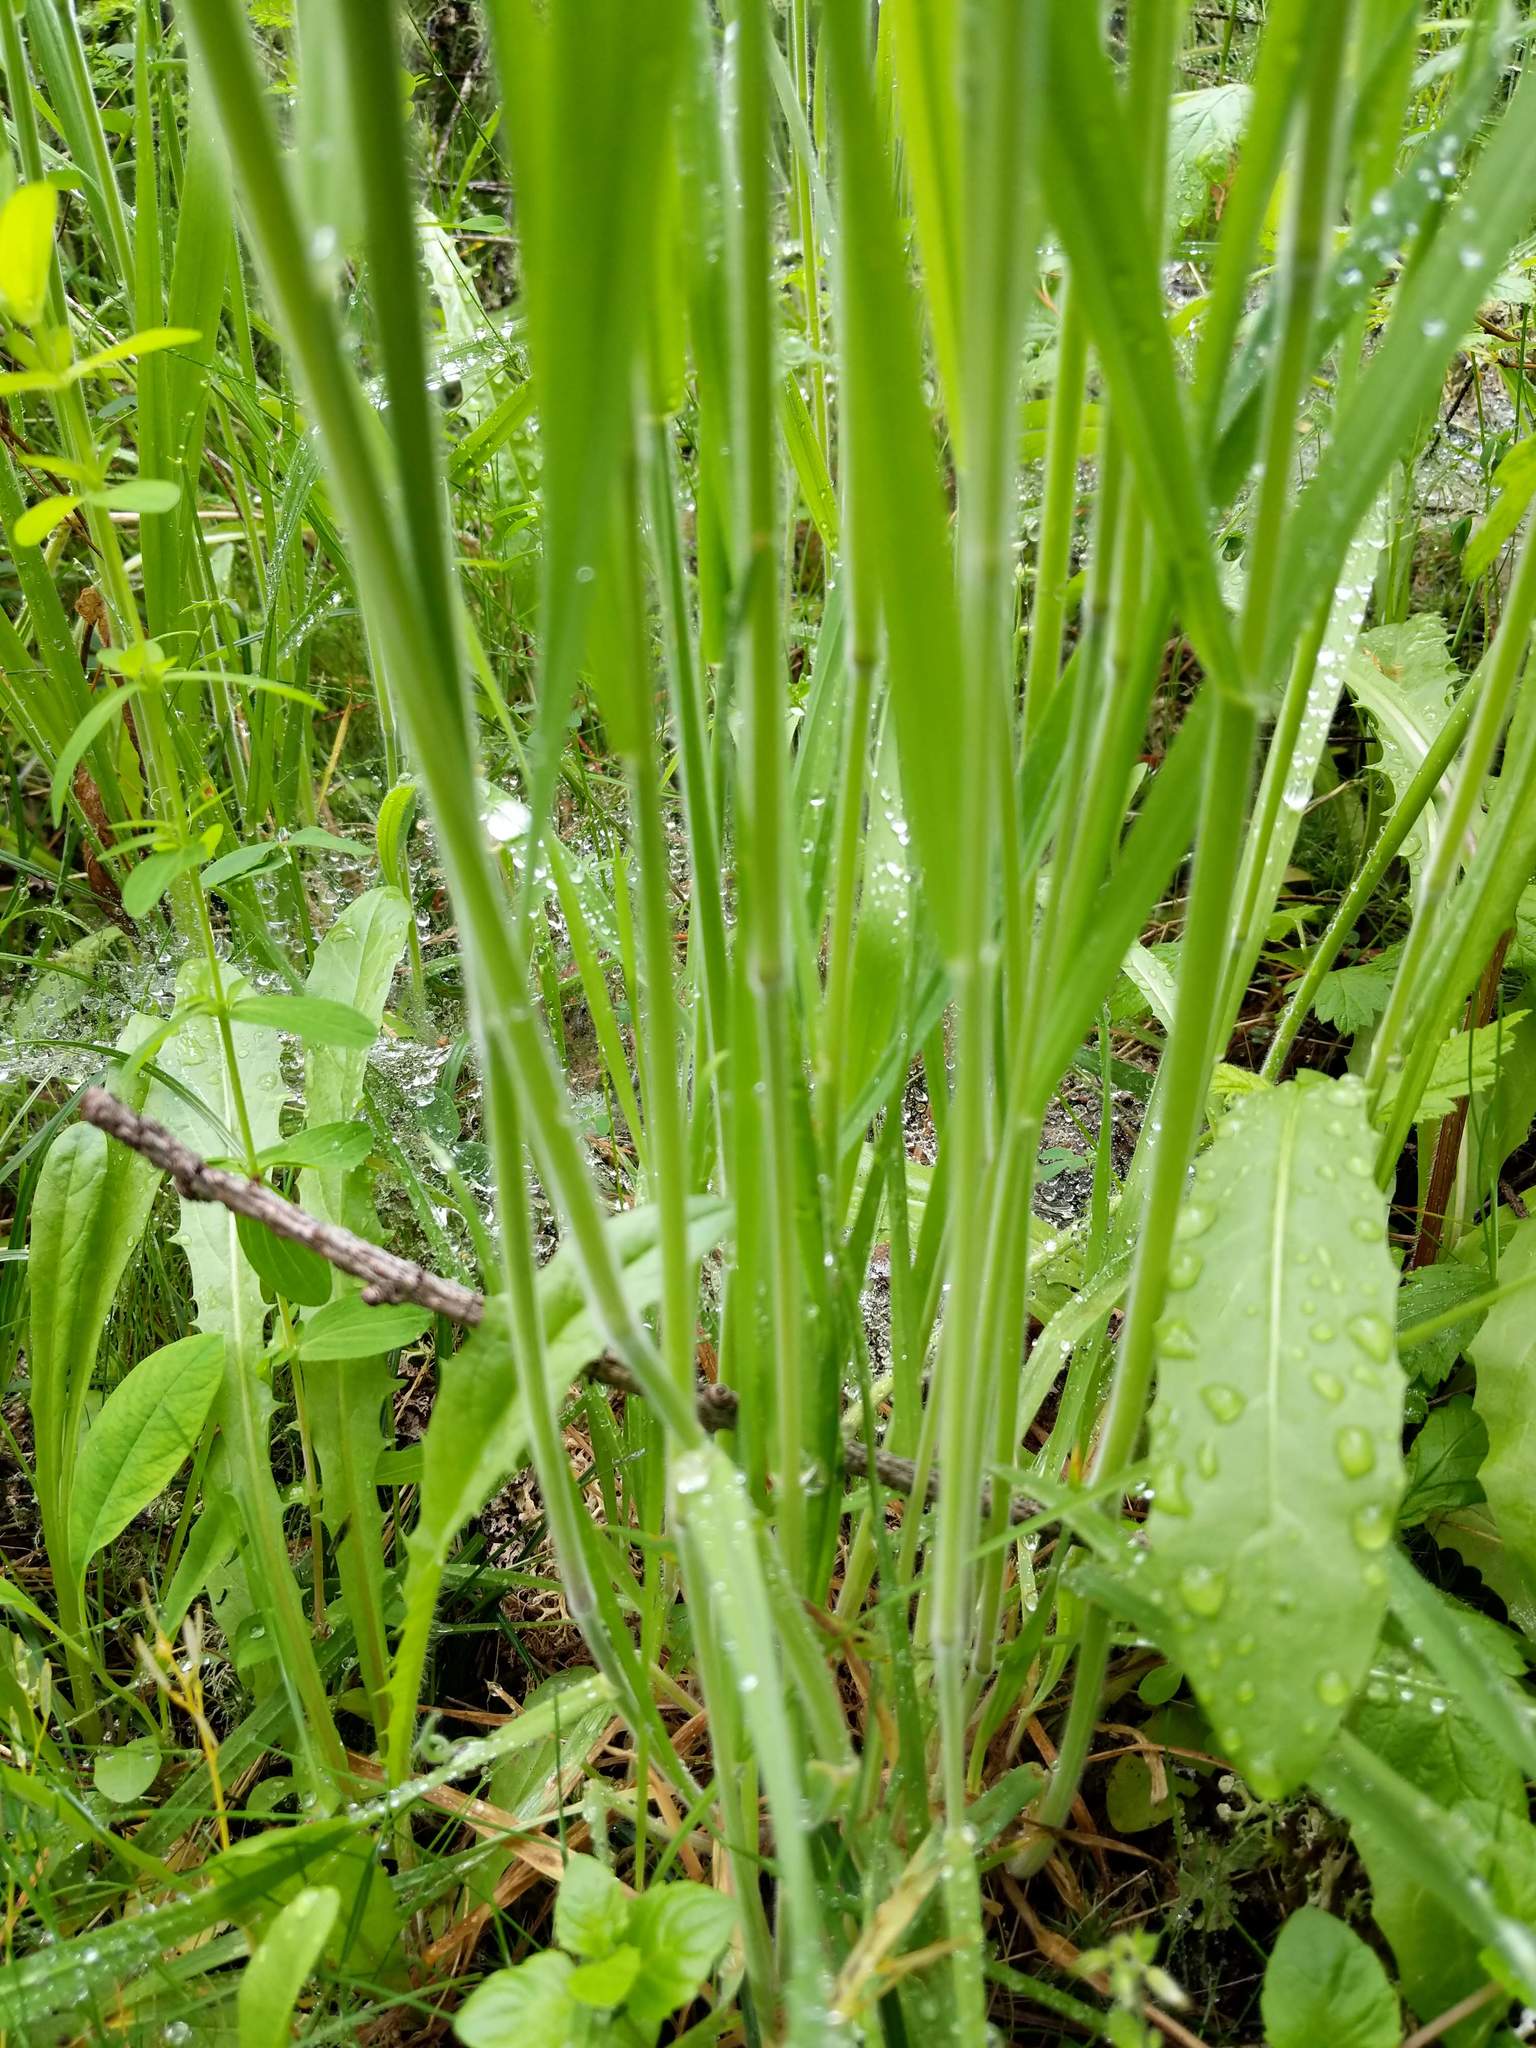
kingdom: Plantae
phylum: Tracheophyta
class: Liliopsida
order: Poales
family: Poaceae
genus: Holcus
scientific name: Holcus lanatus
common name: Yorkshire-fog
